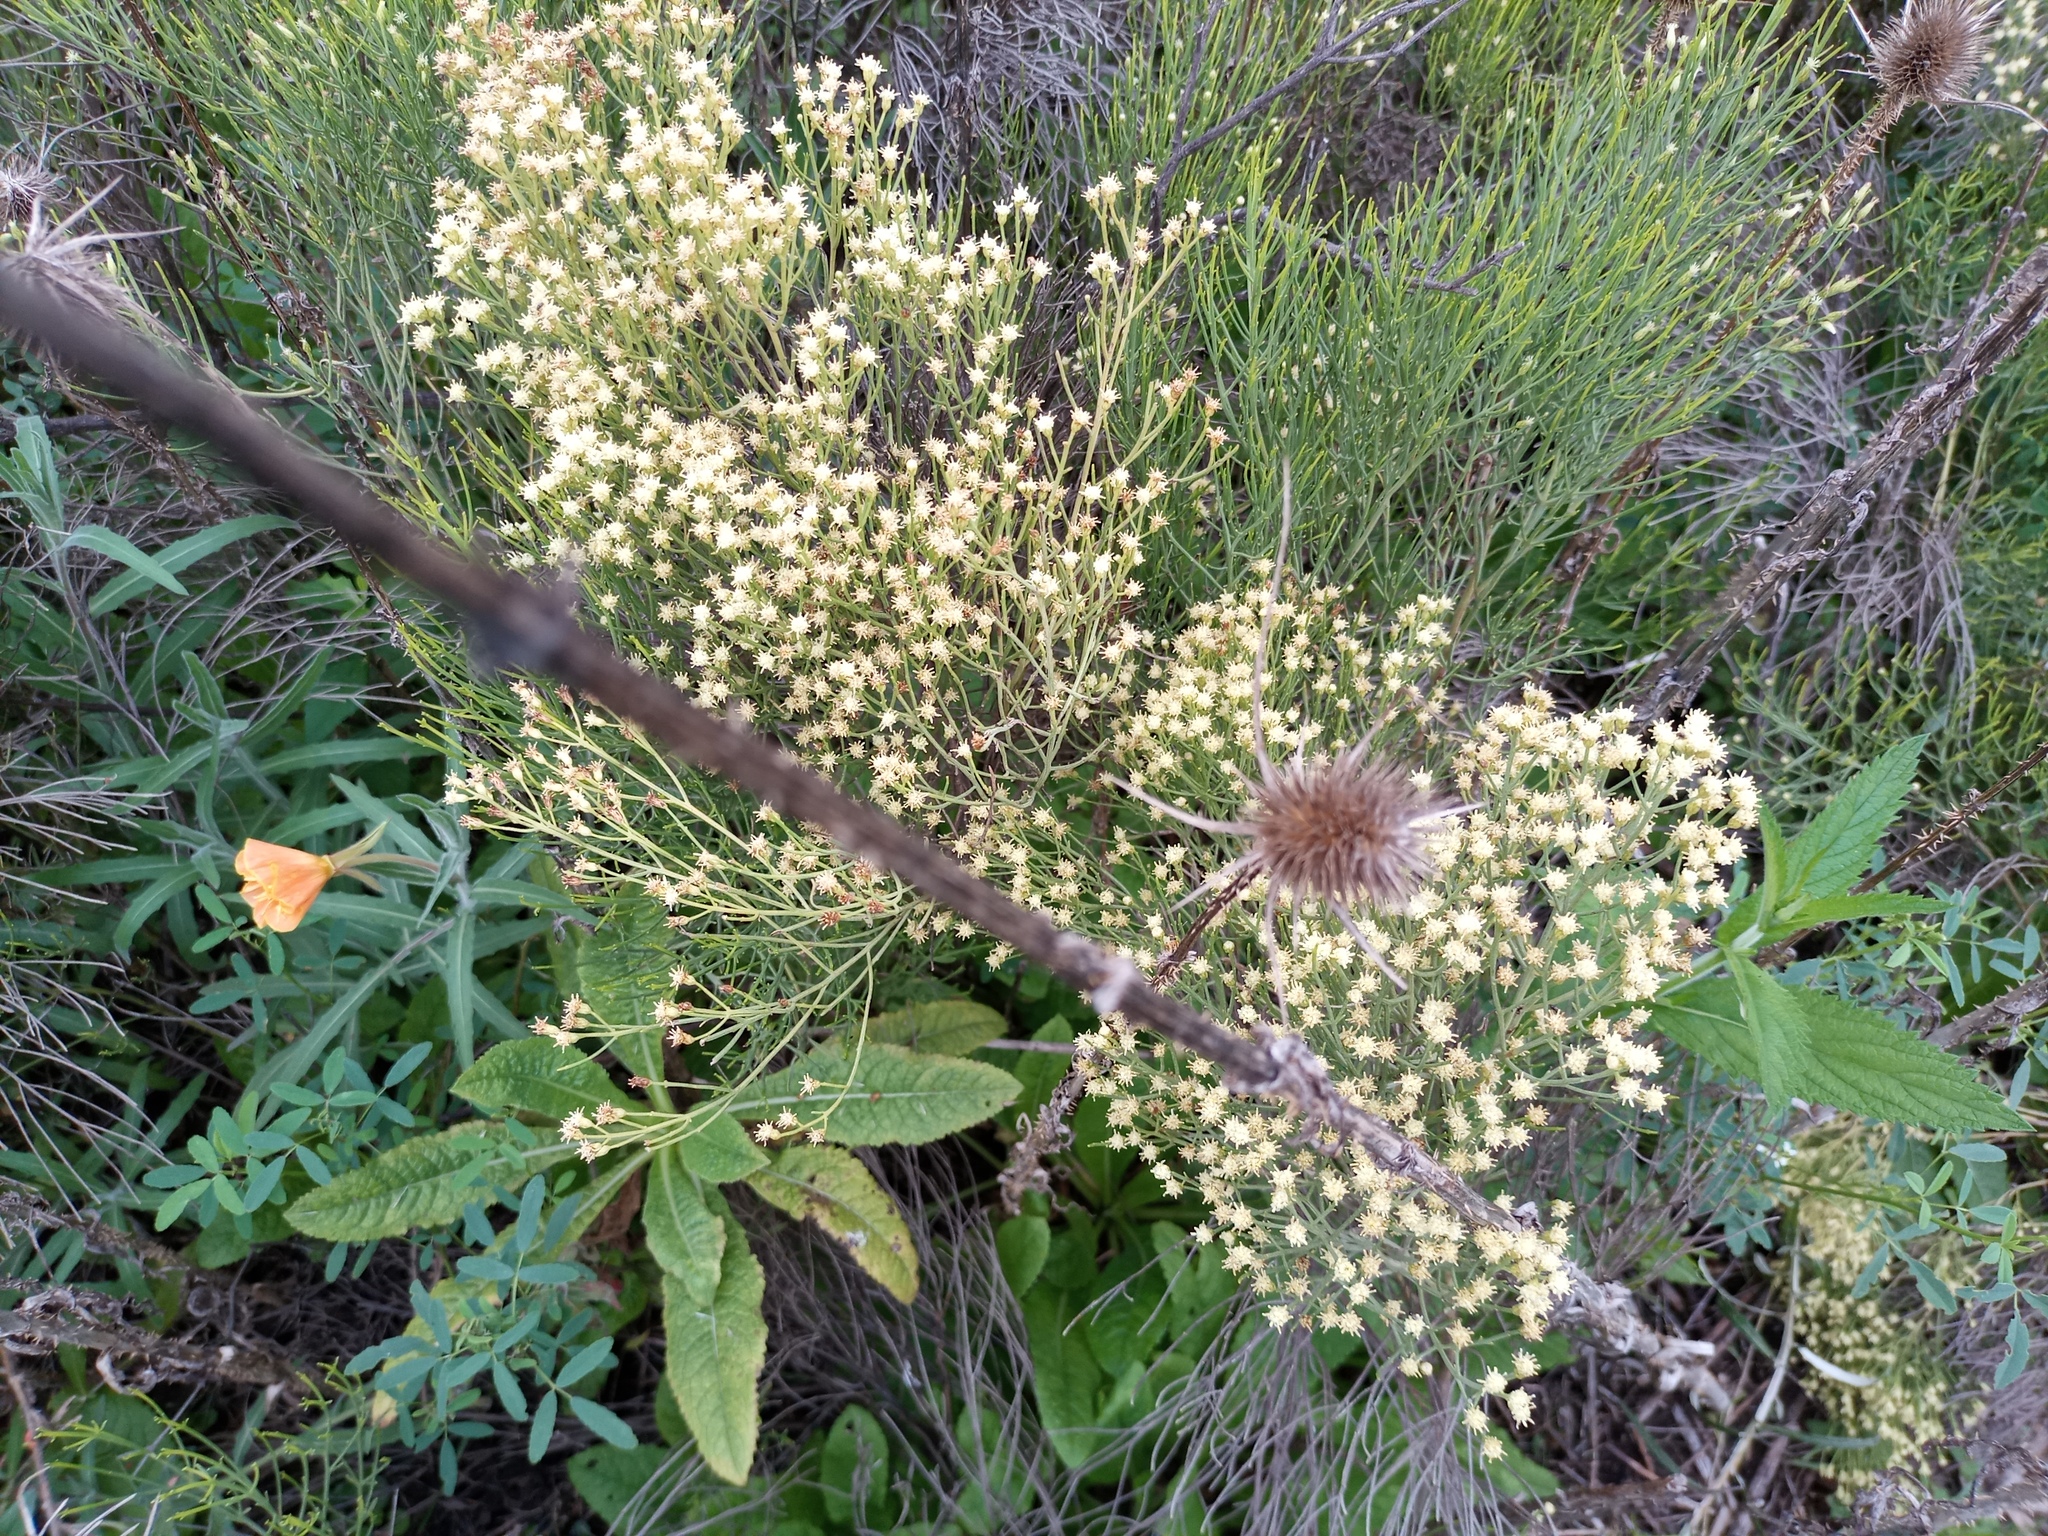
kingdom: Plantae
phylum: Tracheophyta
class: Magnoliopsida
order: Asterales
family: Asteraceae
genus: Baccharis
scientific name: Baccharis notosergila
